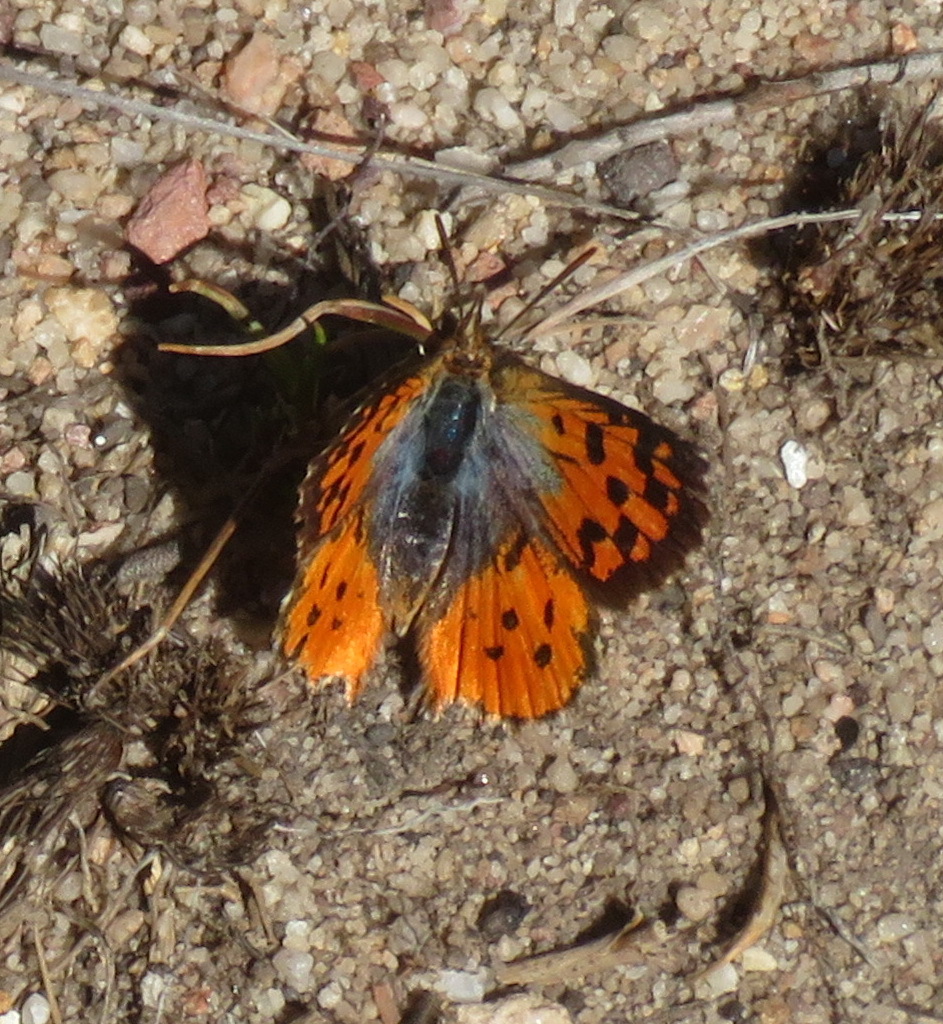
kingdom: Animalia
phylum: Arthropoda
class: Insecta
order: Lepidoptera
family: Lycaenidae
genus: Chrysoritis
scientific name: Chrysoritis pyramus
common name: Pyramus opal
